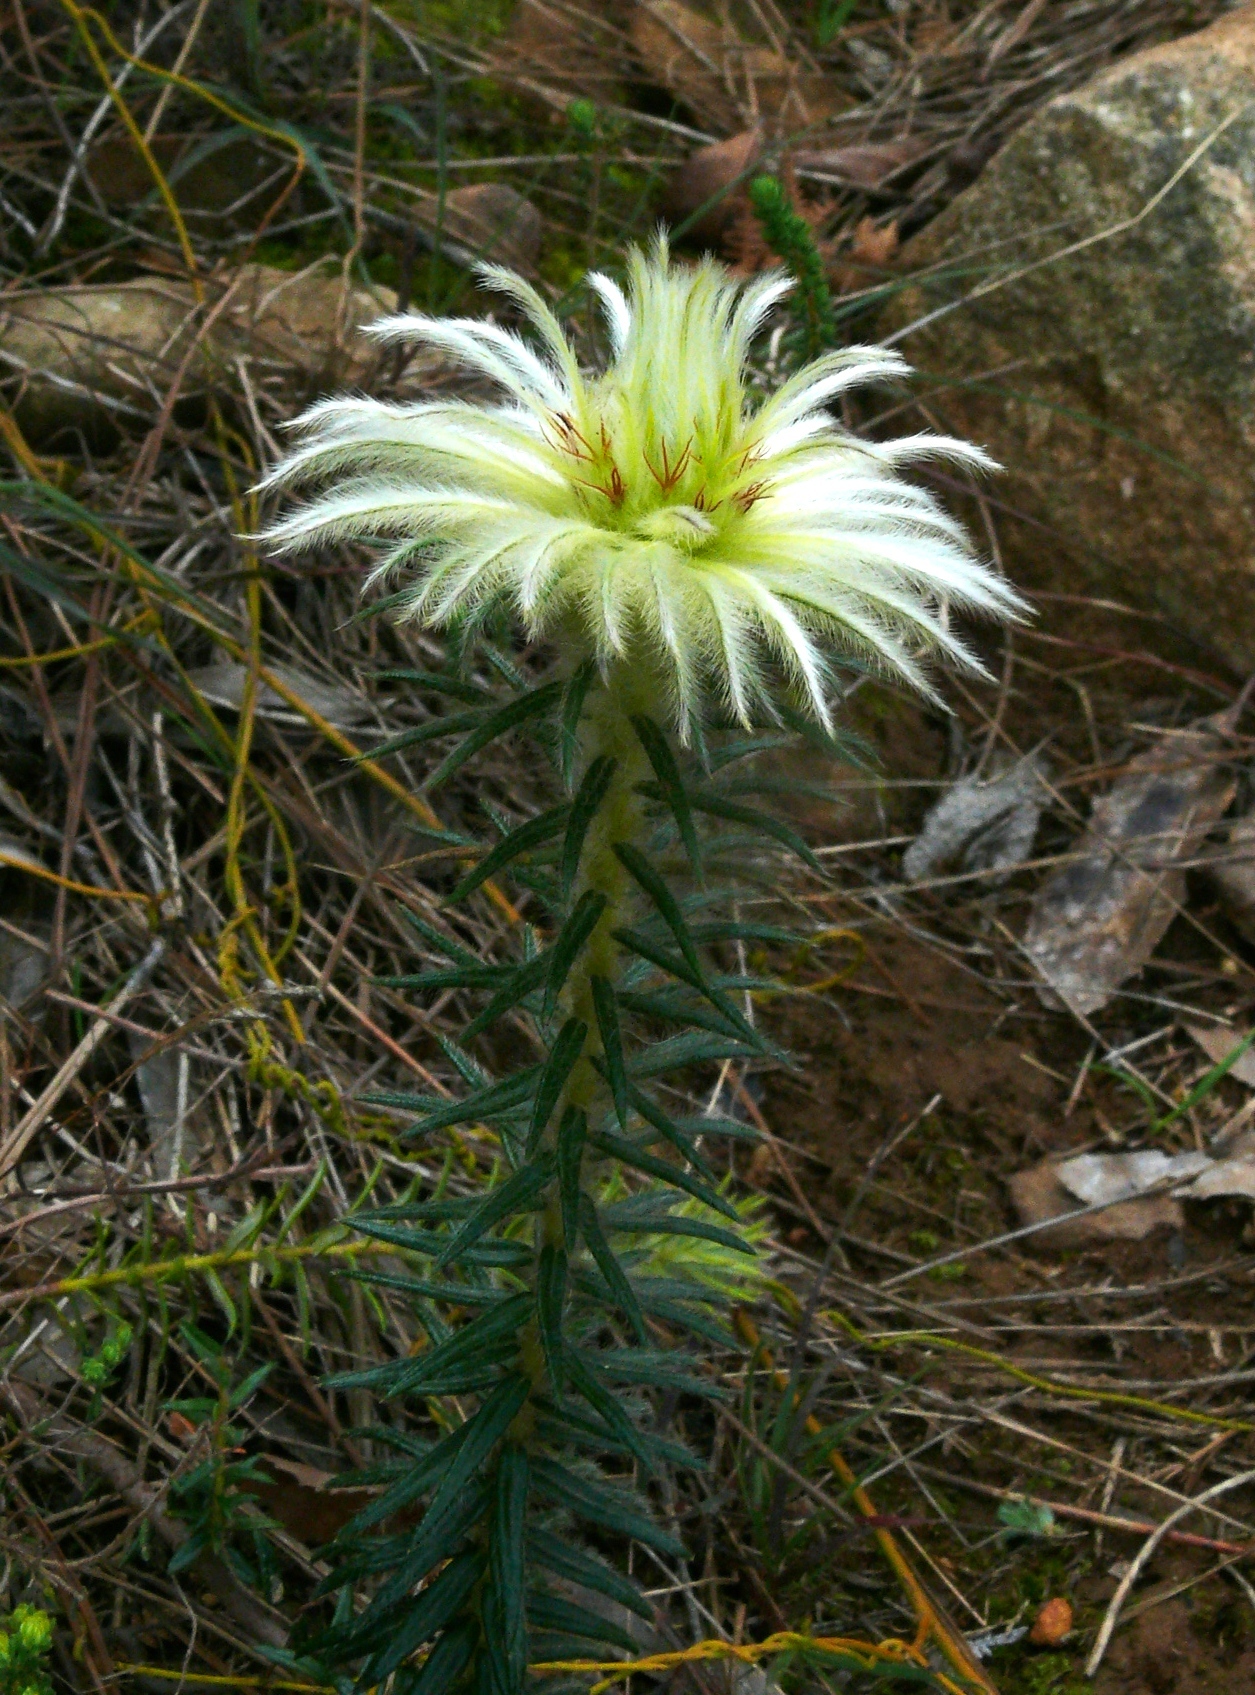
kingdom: Plantae
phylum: Tracheophyta
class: Magnoliopsida
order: Rosales
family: Rhamnaceae
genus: Phylica
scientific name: Phylica pubescens
